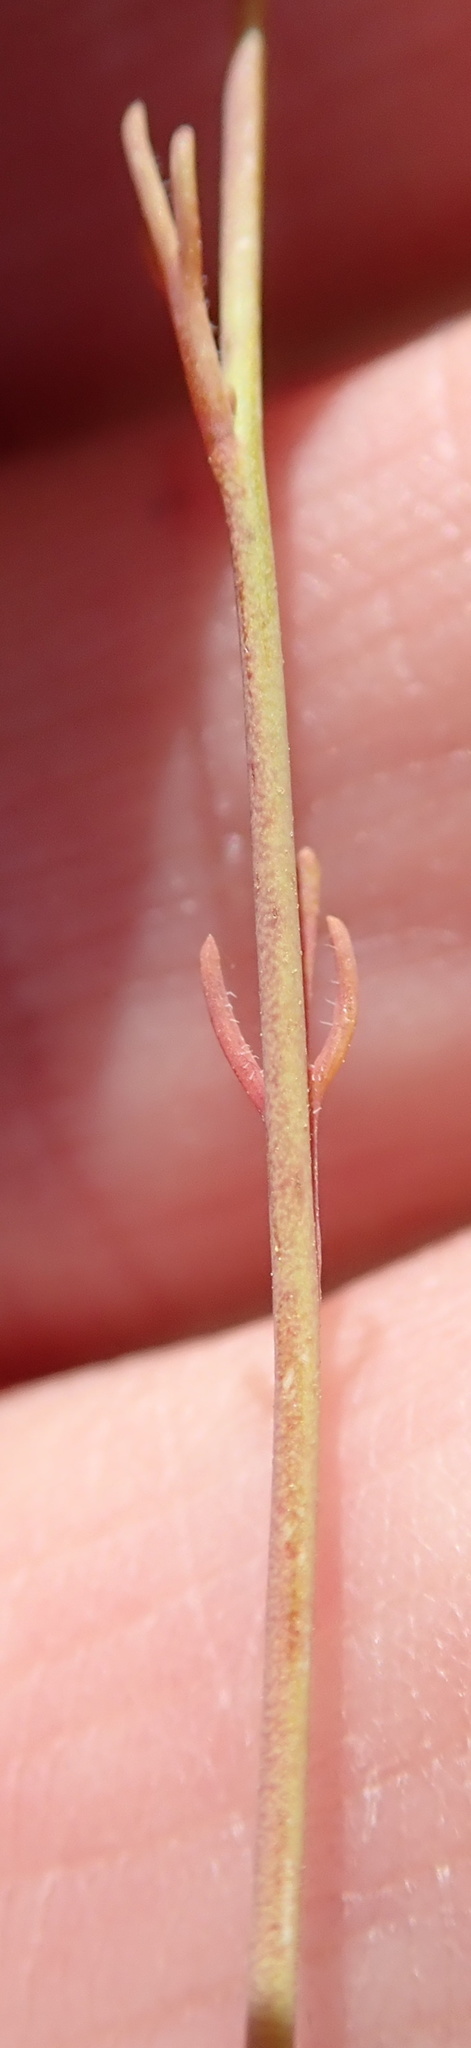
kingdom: Plantae
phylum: Tracheophyta
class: Magnoliopsida
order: Brassicales
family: Brassicaceae
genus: Heliophila
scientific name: Heliophila acuminata
